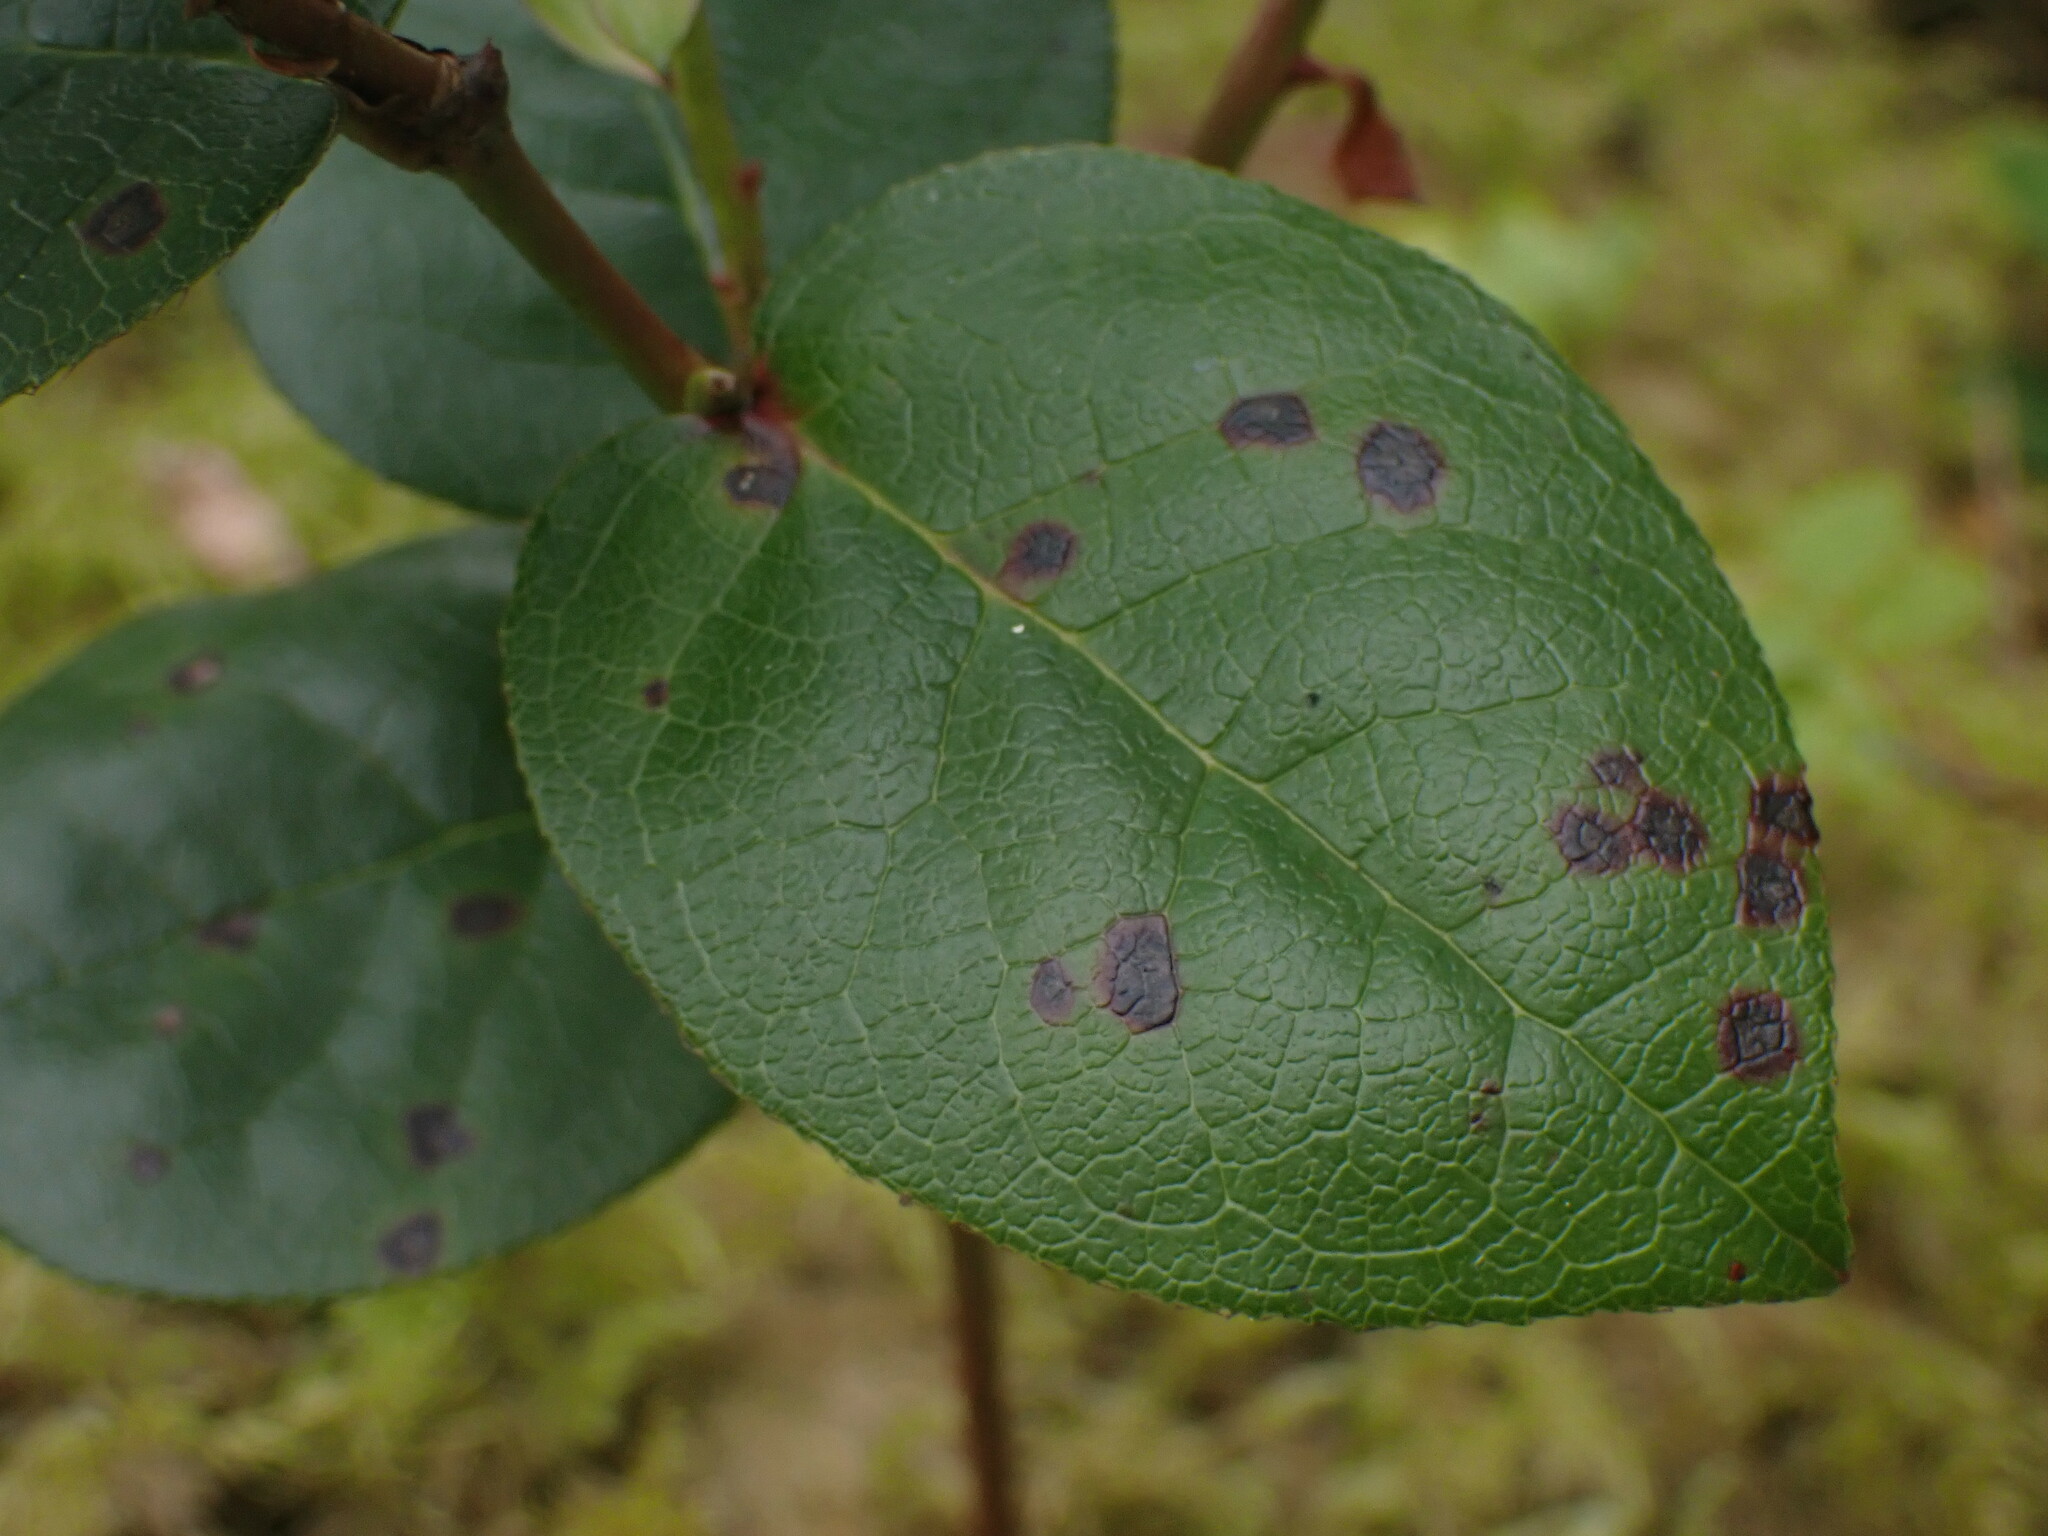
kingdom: Plantae
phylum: Tracheophyta
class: Magnoliopsida
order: Ericales
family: Ericaceae
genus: Gaultheria
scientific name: Gaultheria shallon
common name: Shallon
